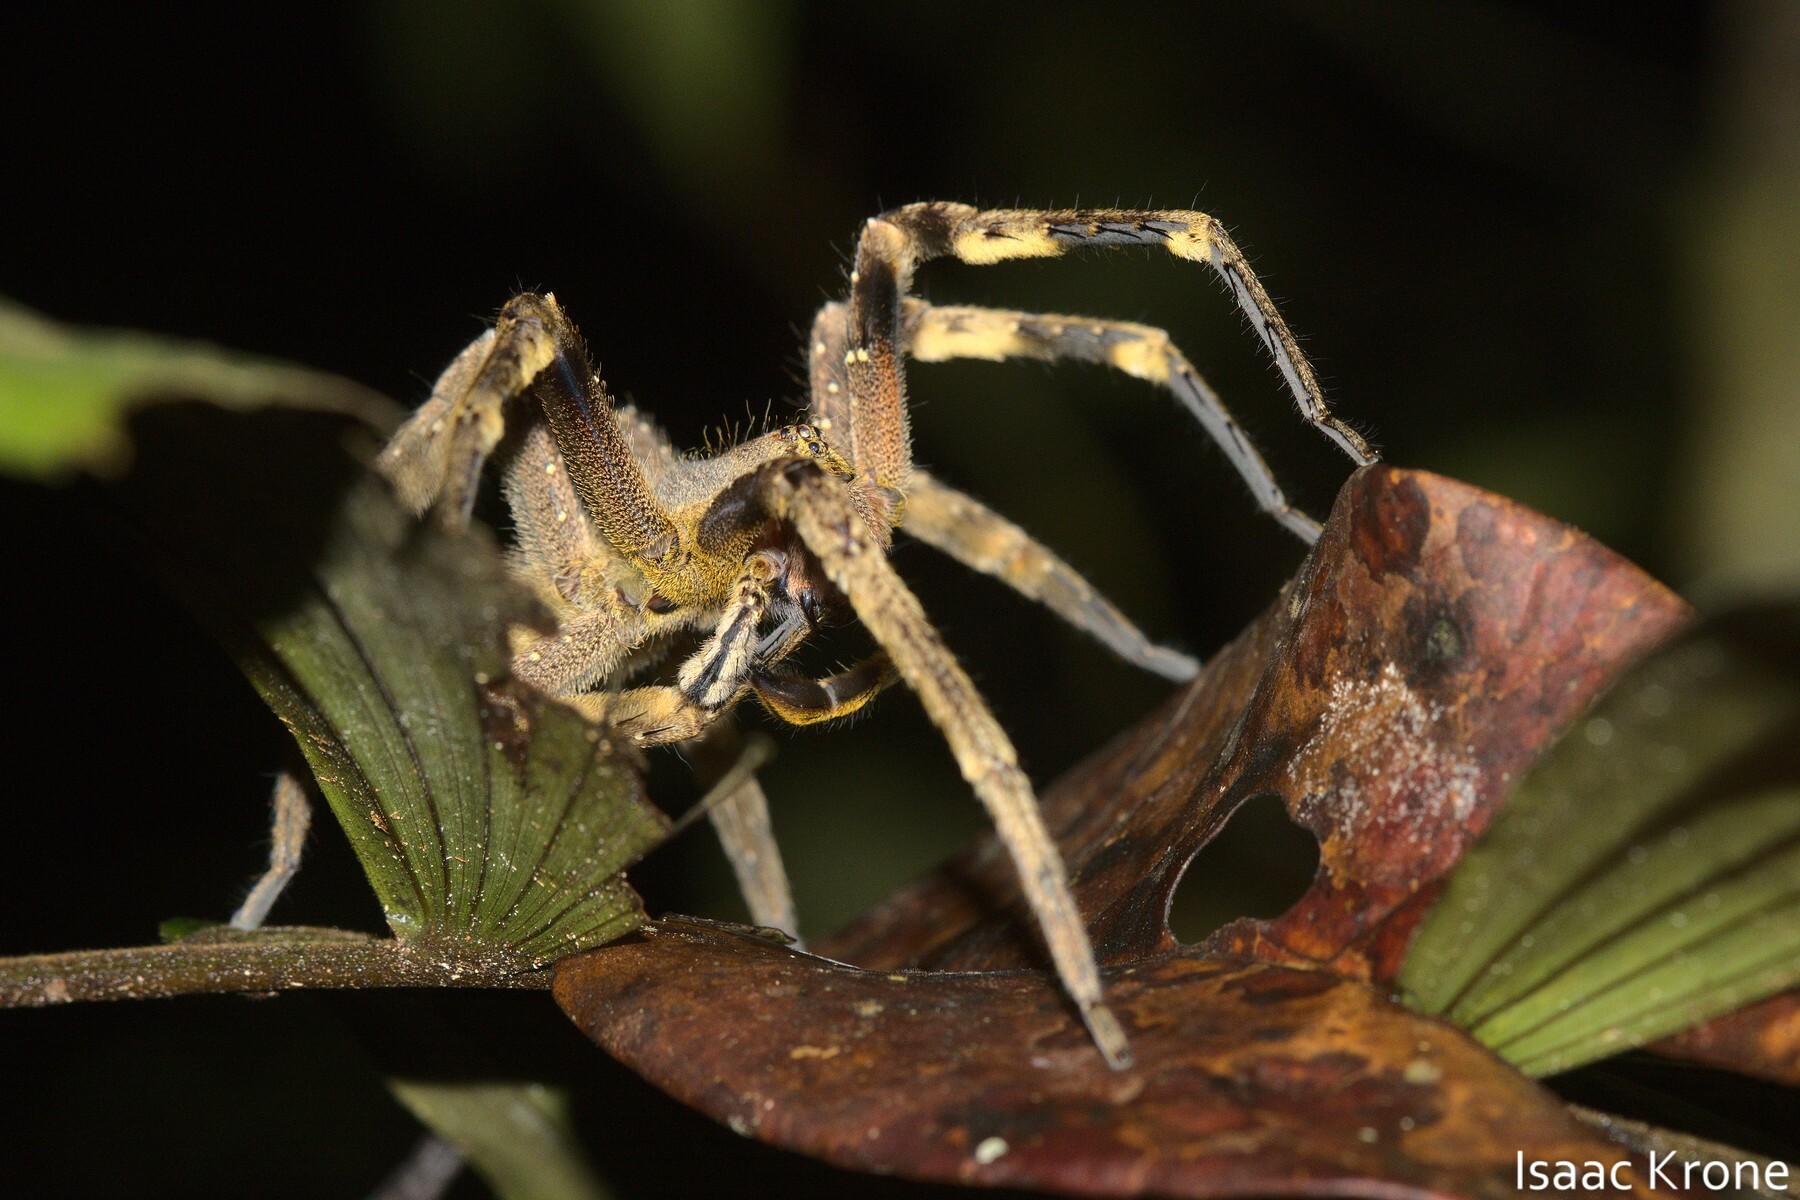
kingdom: Animalia
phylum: Arthropoda
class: Arachnida
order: Araneae
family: Ctenidae
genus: Phoneutria
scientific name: Phoneutria fera
